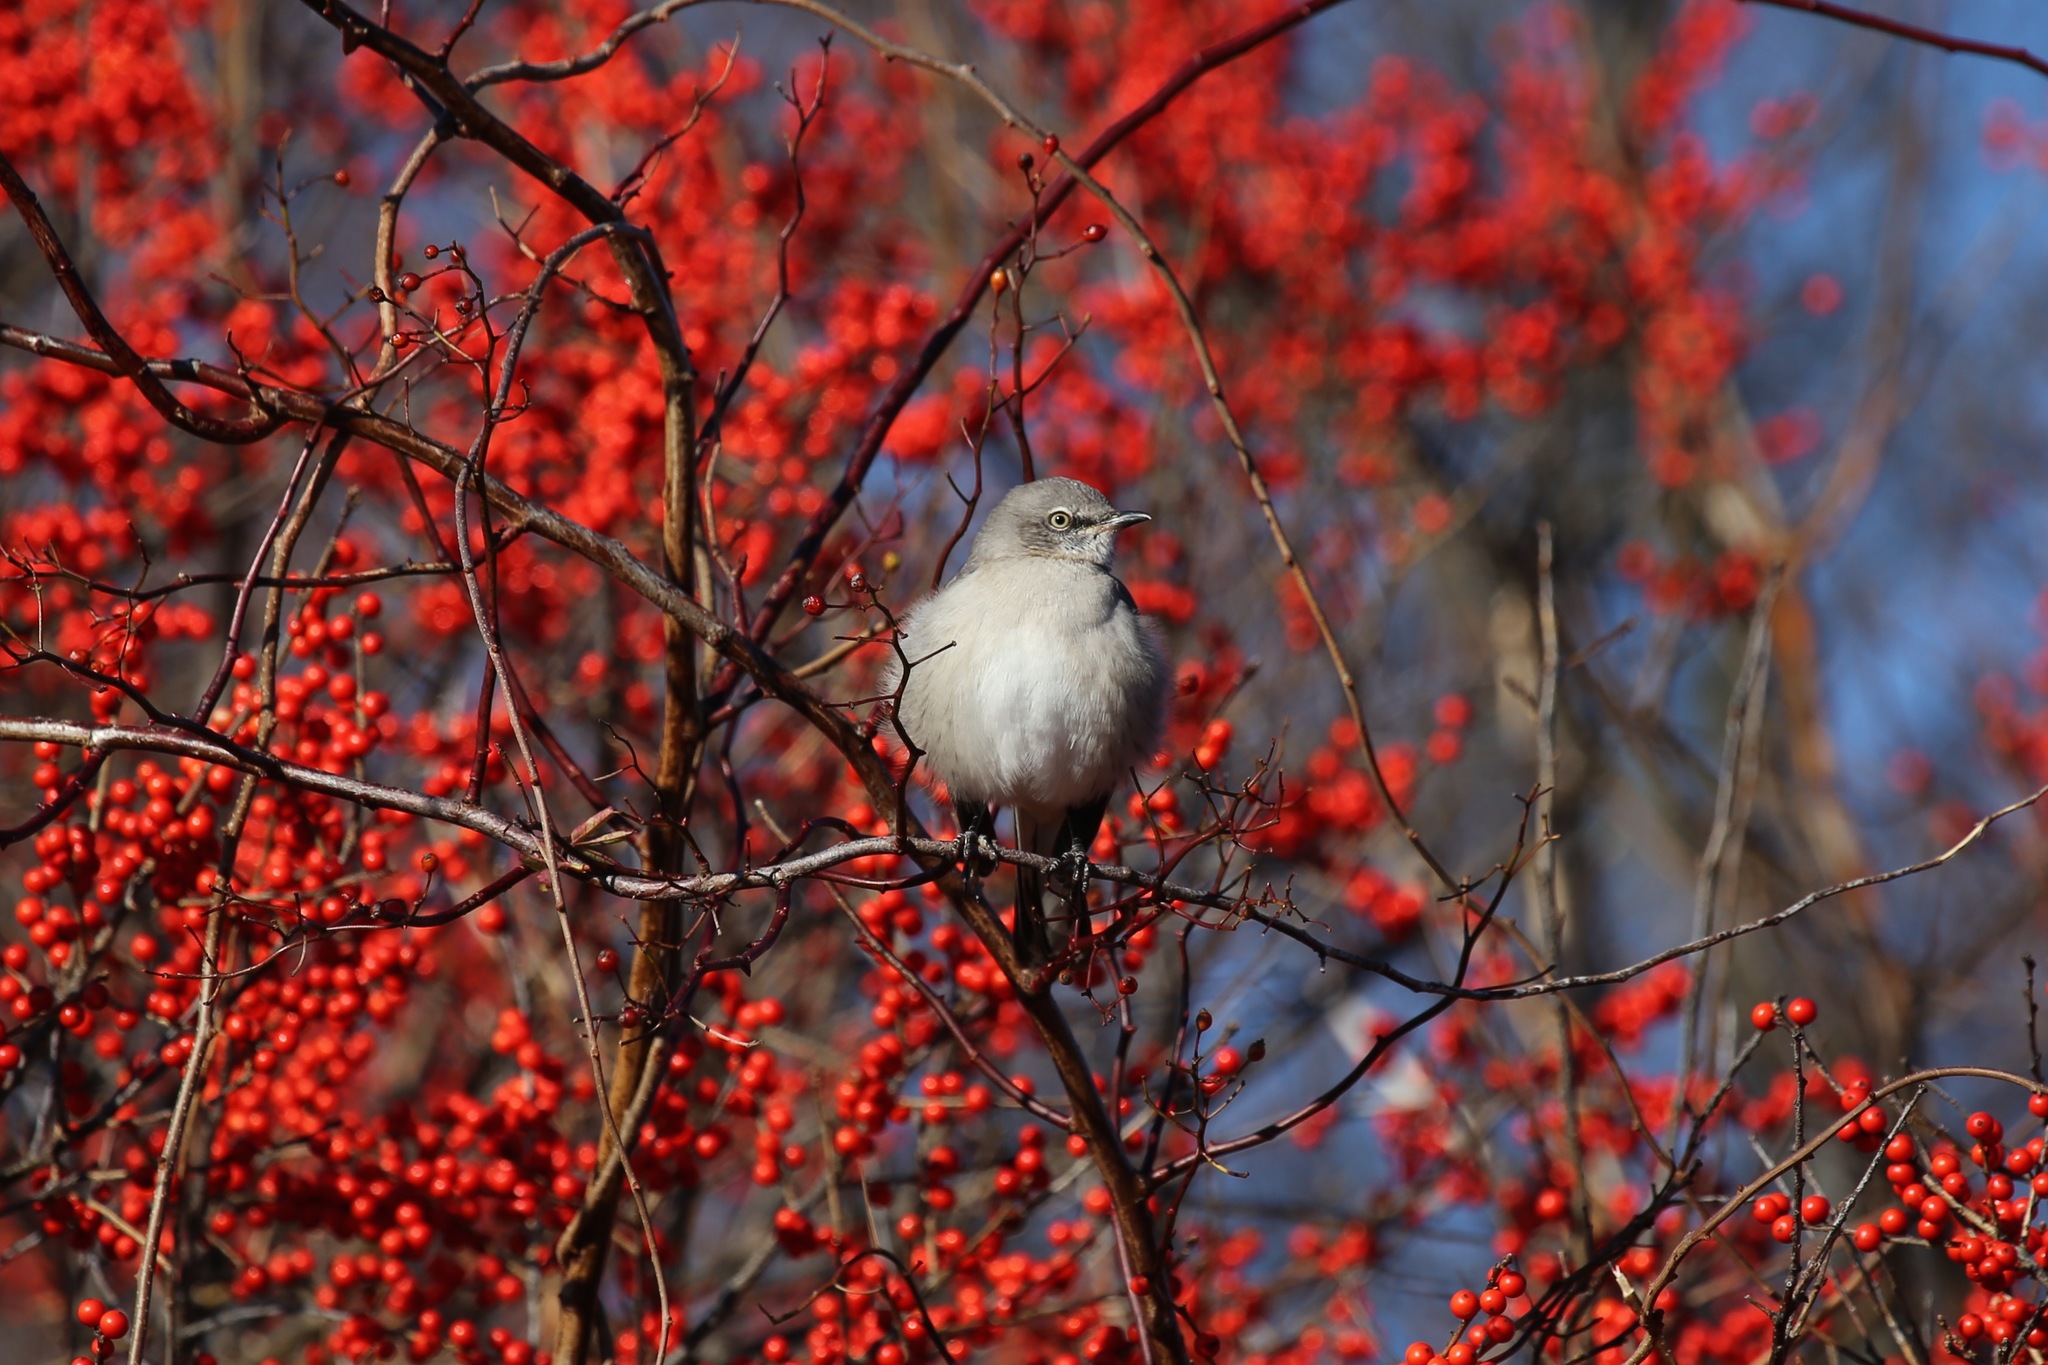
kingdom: Animalia
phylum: Chordata
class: Aves
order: Passeriformes
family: Mimidae
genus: Mimus
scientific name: Mimus polyglottos
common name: Northern mockingbird
